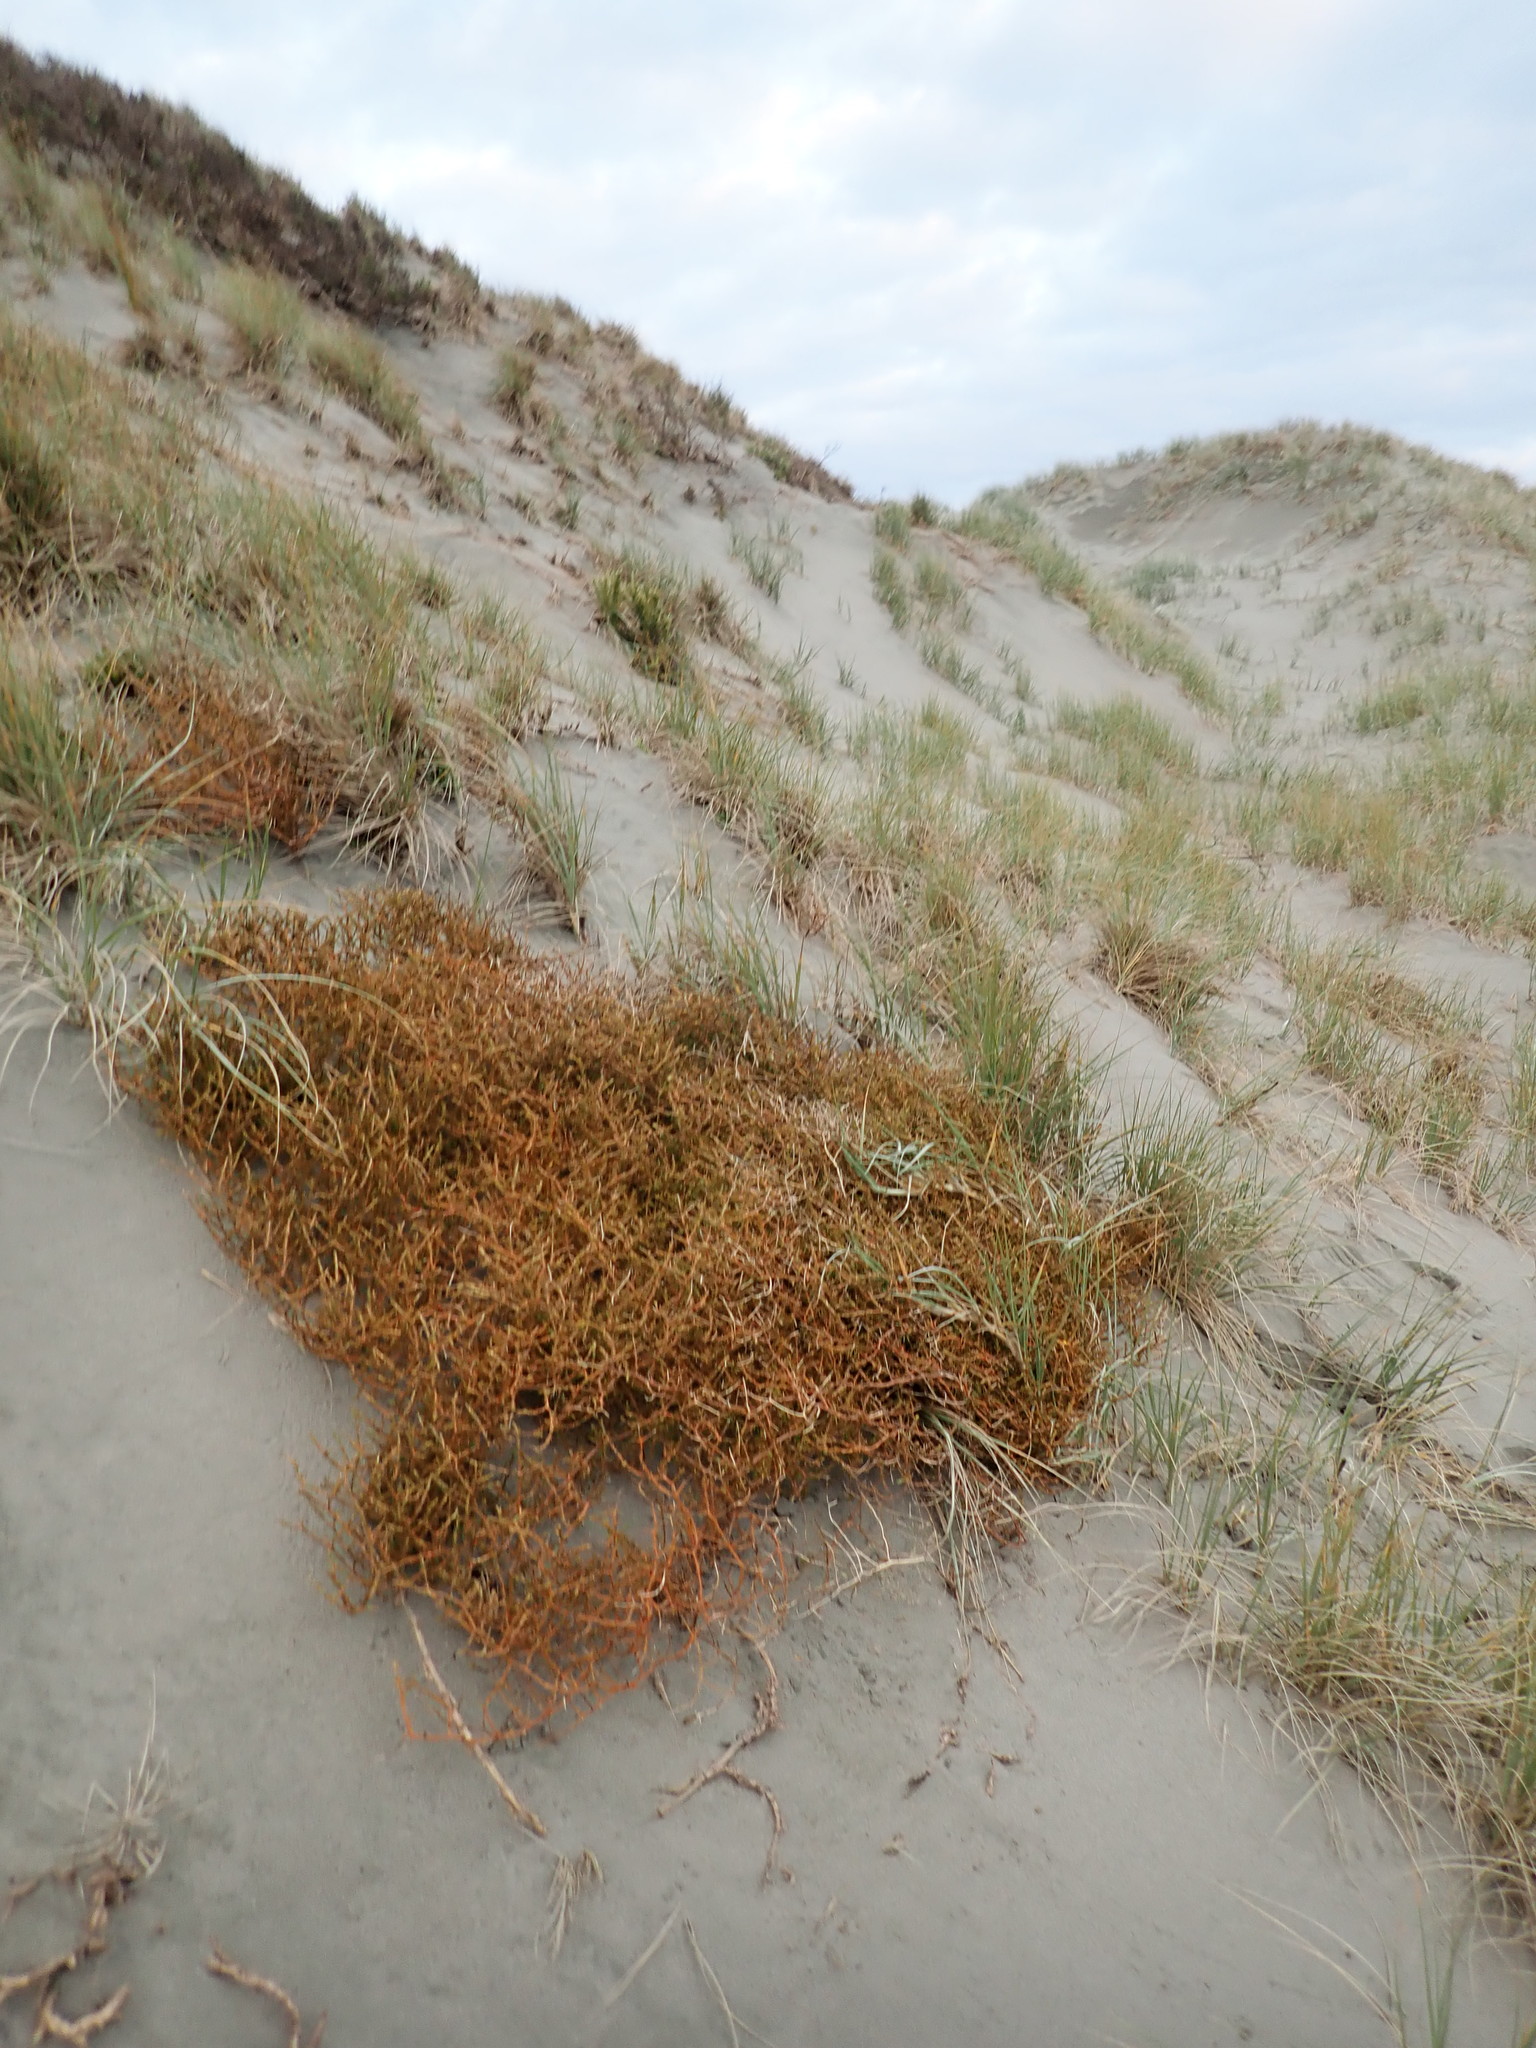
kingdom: Plantae
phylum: Tracheophyta
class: Magnoliopsida
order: Gentianales
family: Rubiaceae
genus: Coprosma
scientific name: Coprosma acerosa
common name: Sand coprosma
